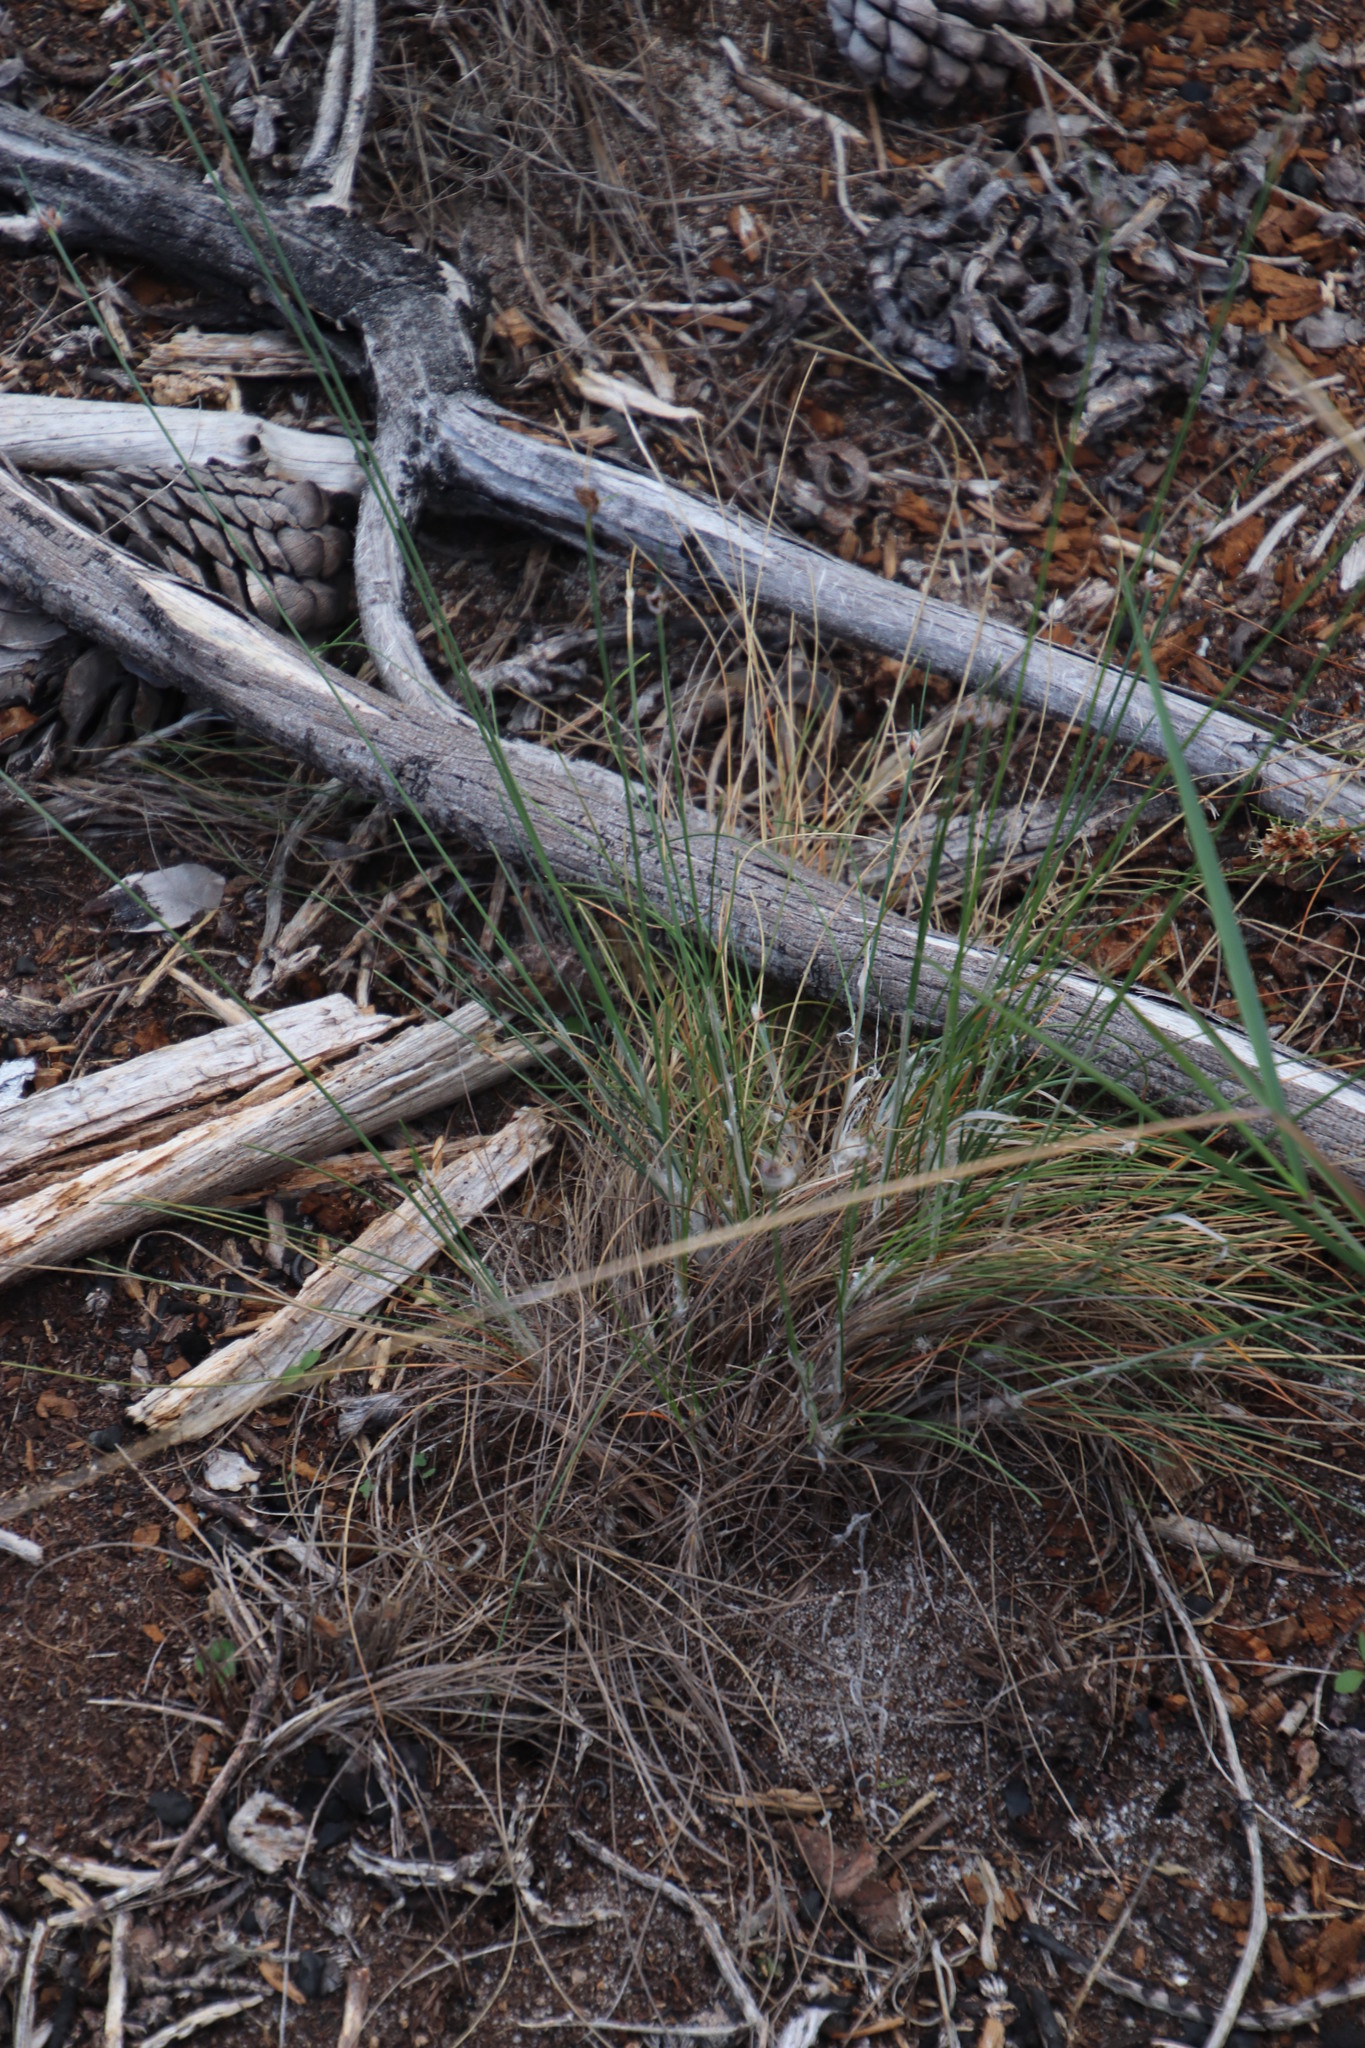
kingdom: Plantae
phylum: Tracheophyta
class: Liliopsida
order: Poales
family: Cyperaceae
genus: Ficinia
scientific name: Ficinia paradoxa
